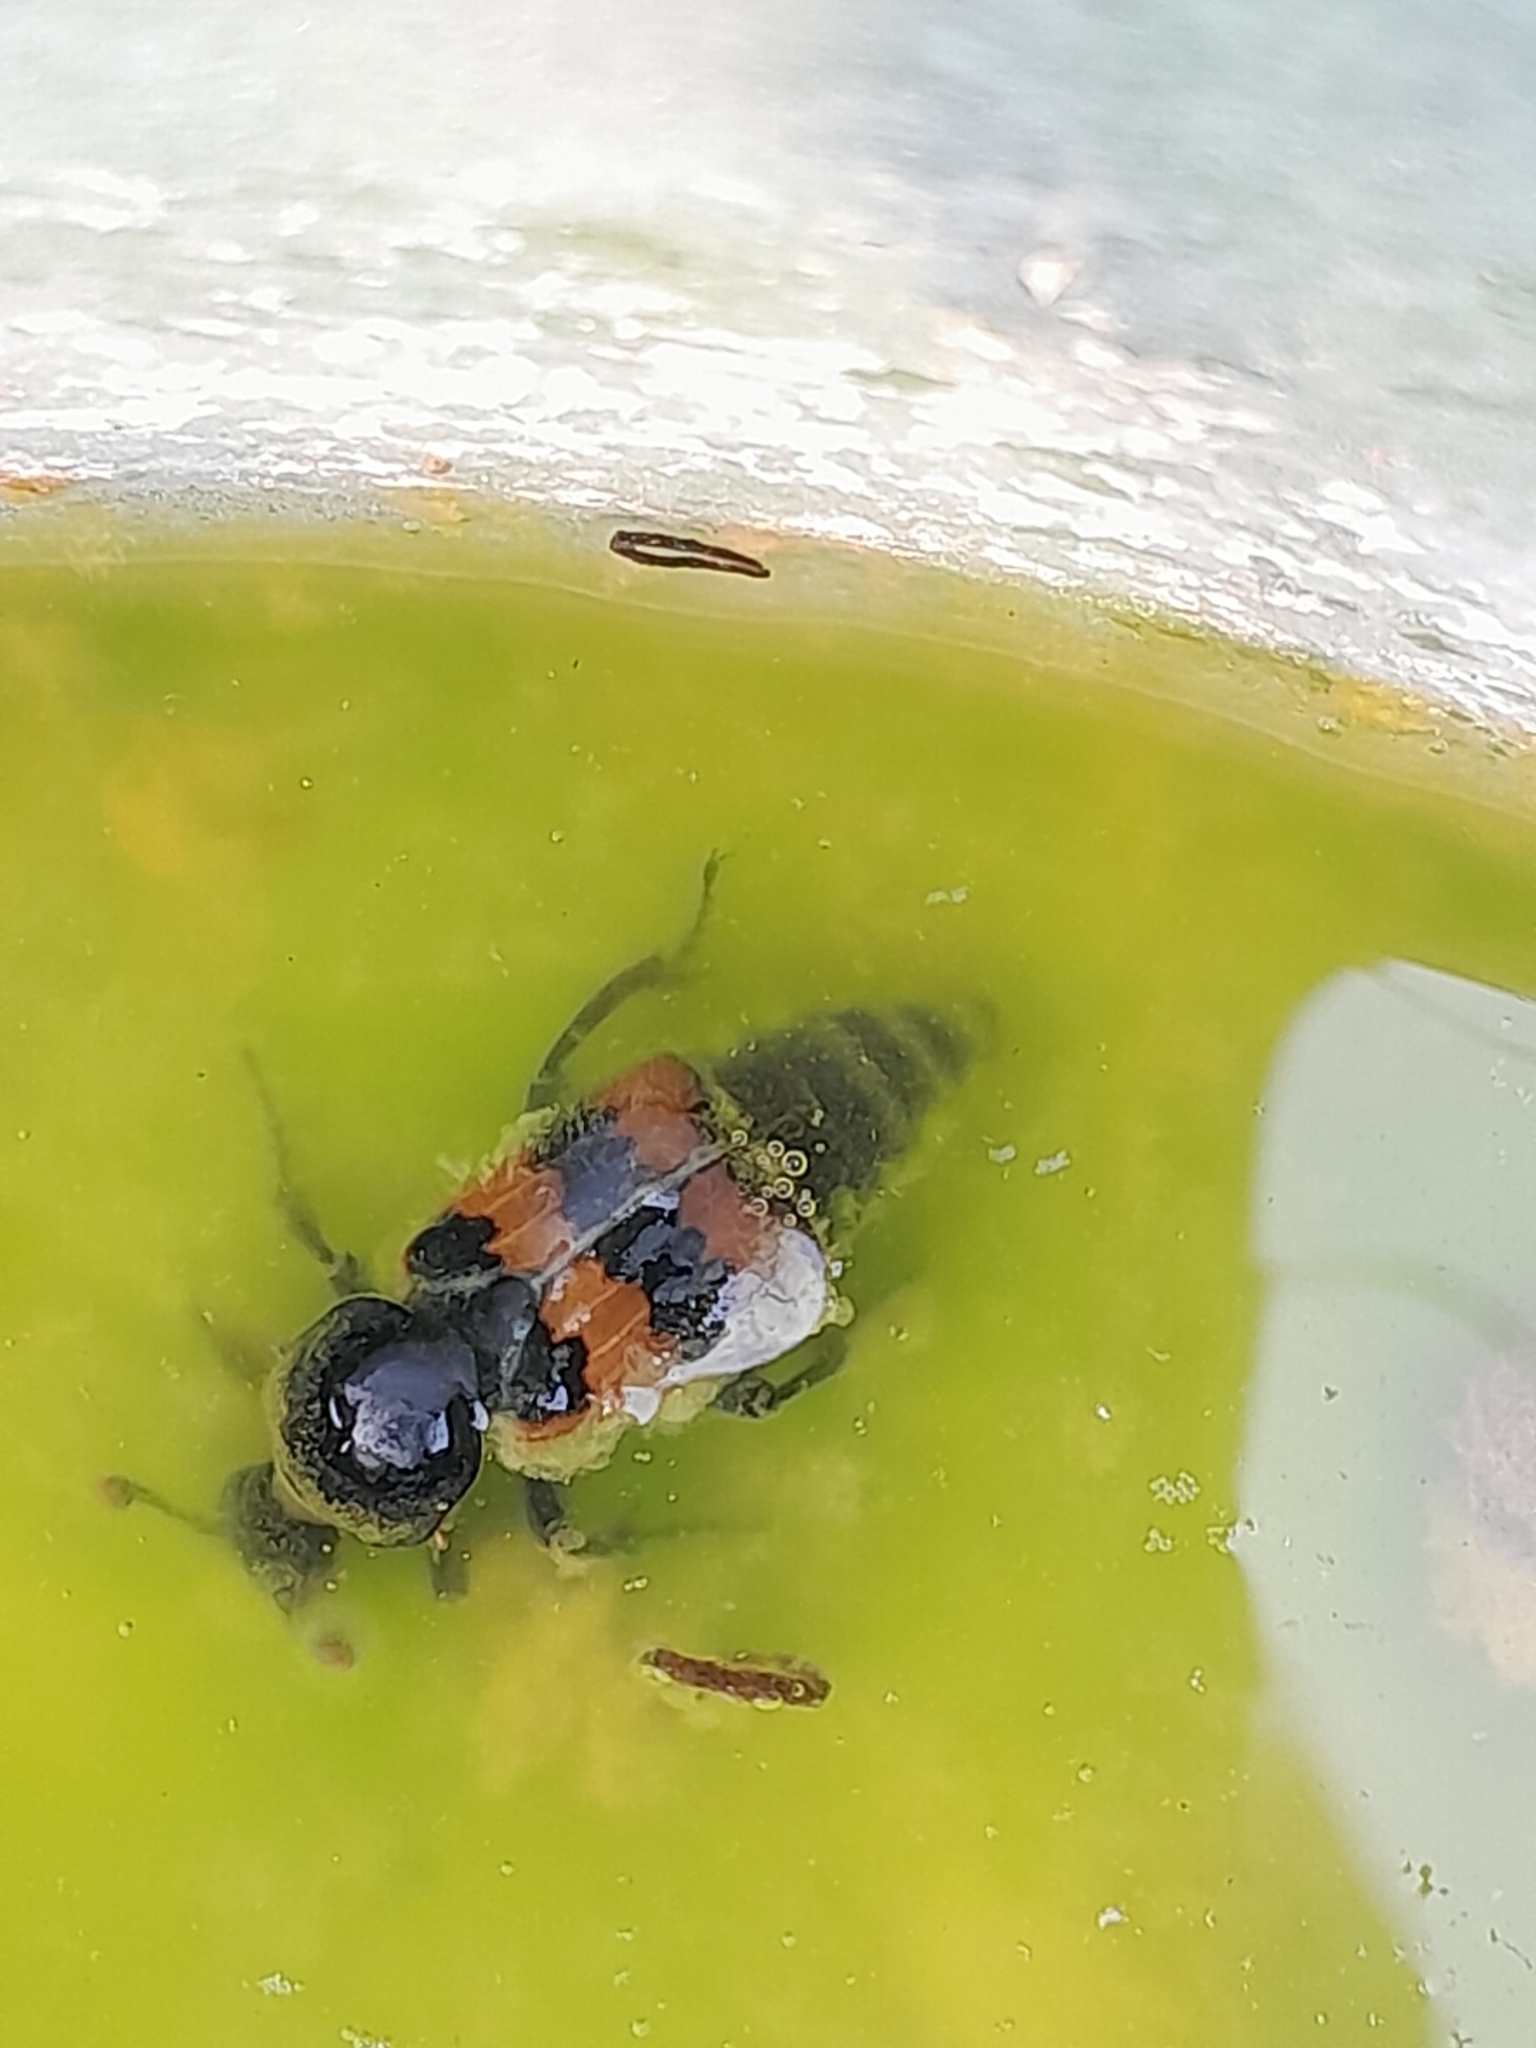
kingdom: Animalia
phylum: Arthropoda
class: Insecta
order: Coleoptera
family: Staphylinidae
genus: Nicrophorus
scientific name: Nicrophorus vespillo
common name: Common burying beetle
